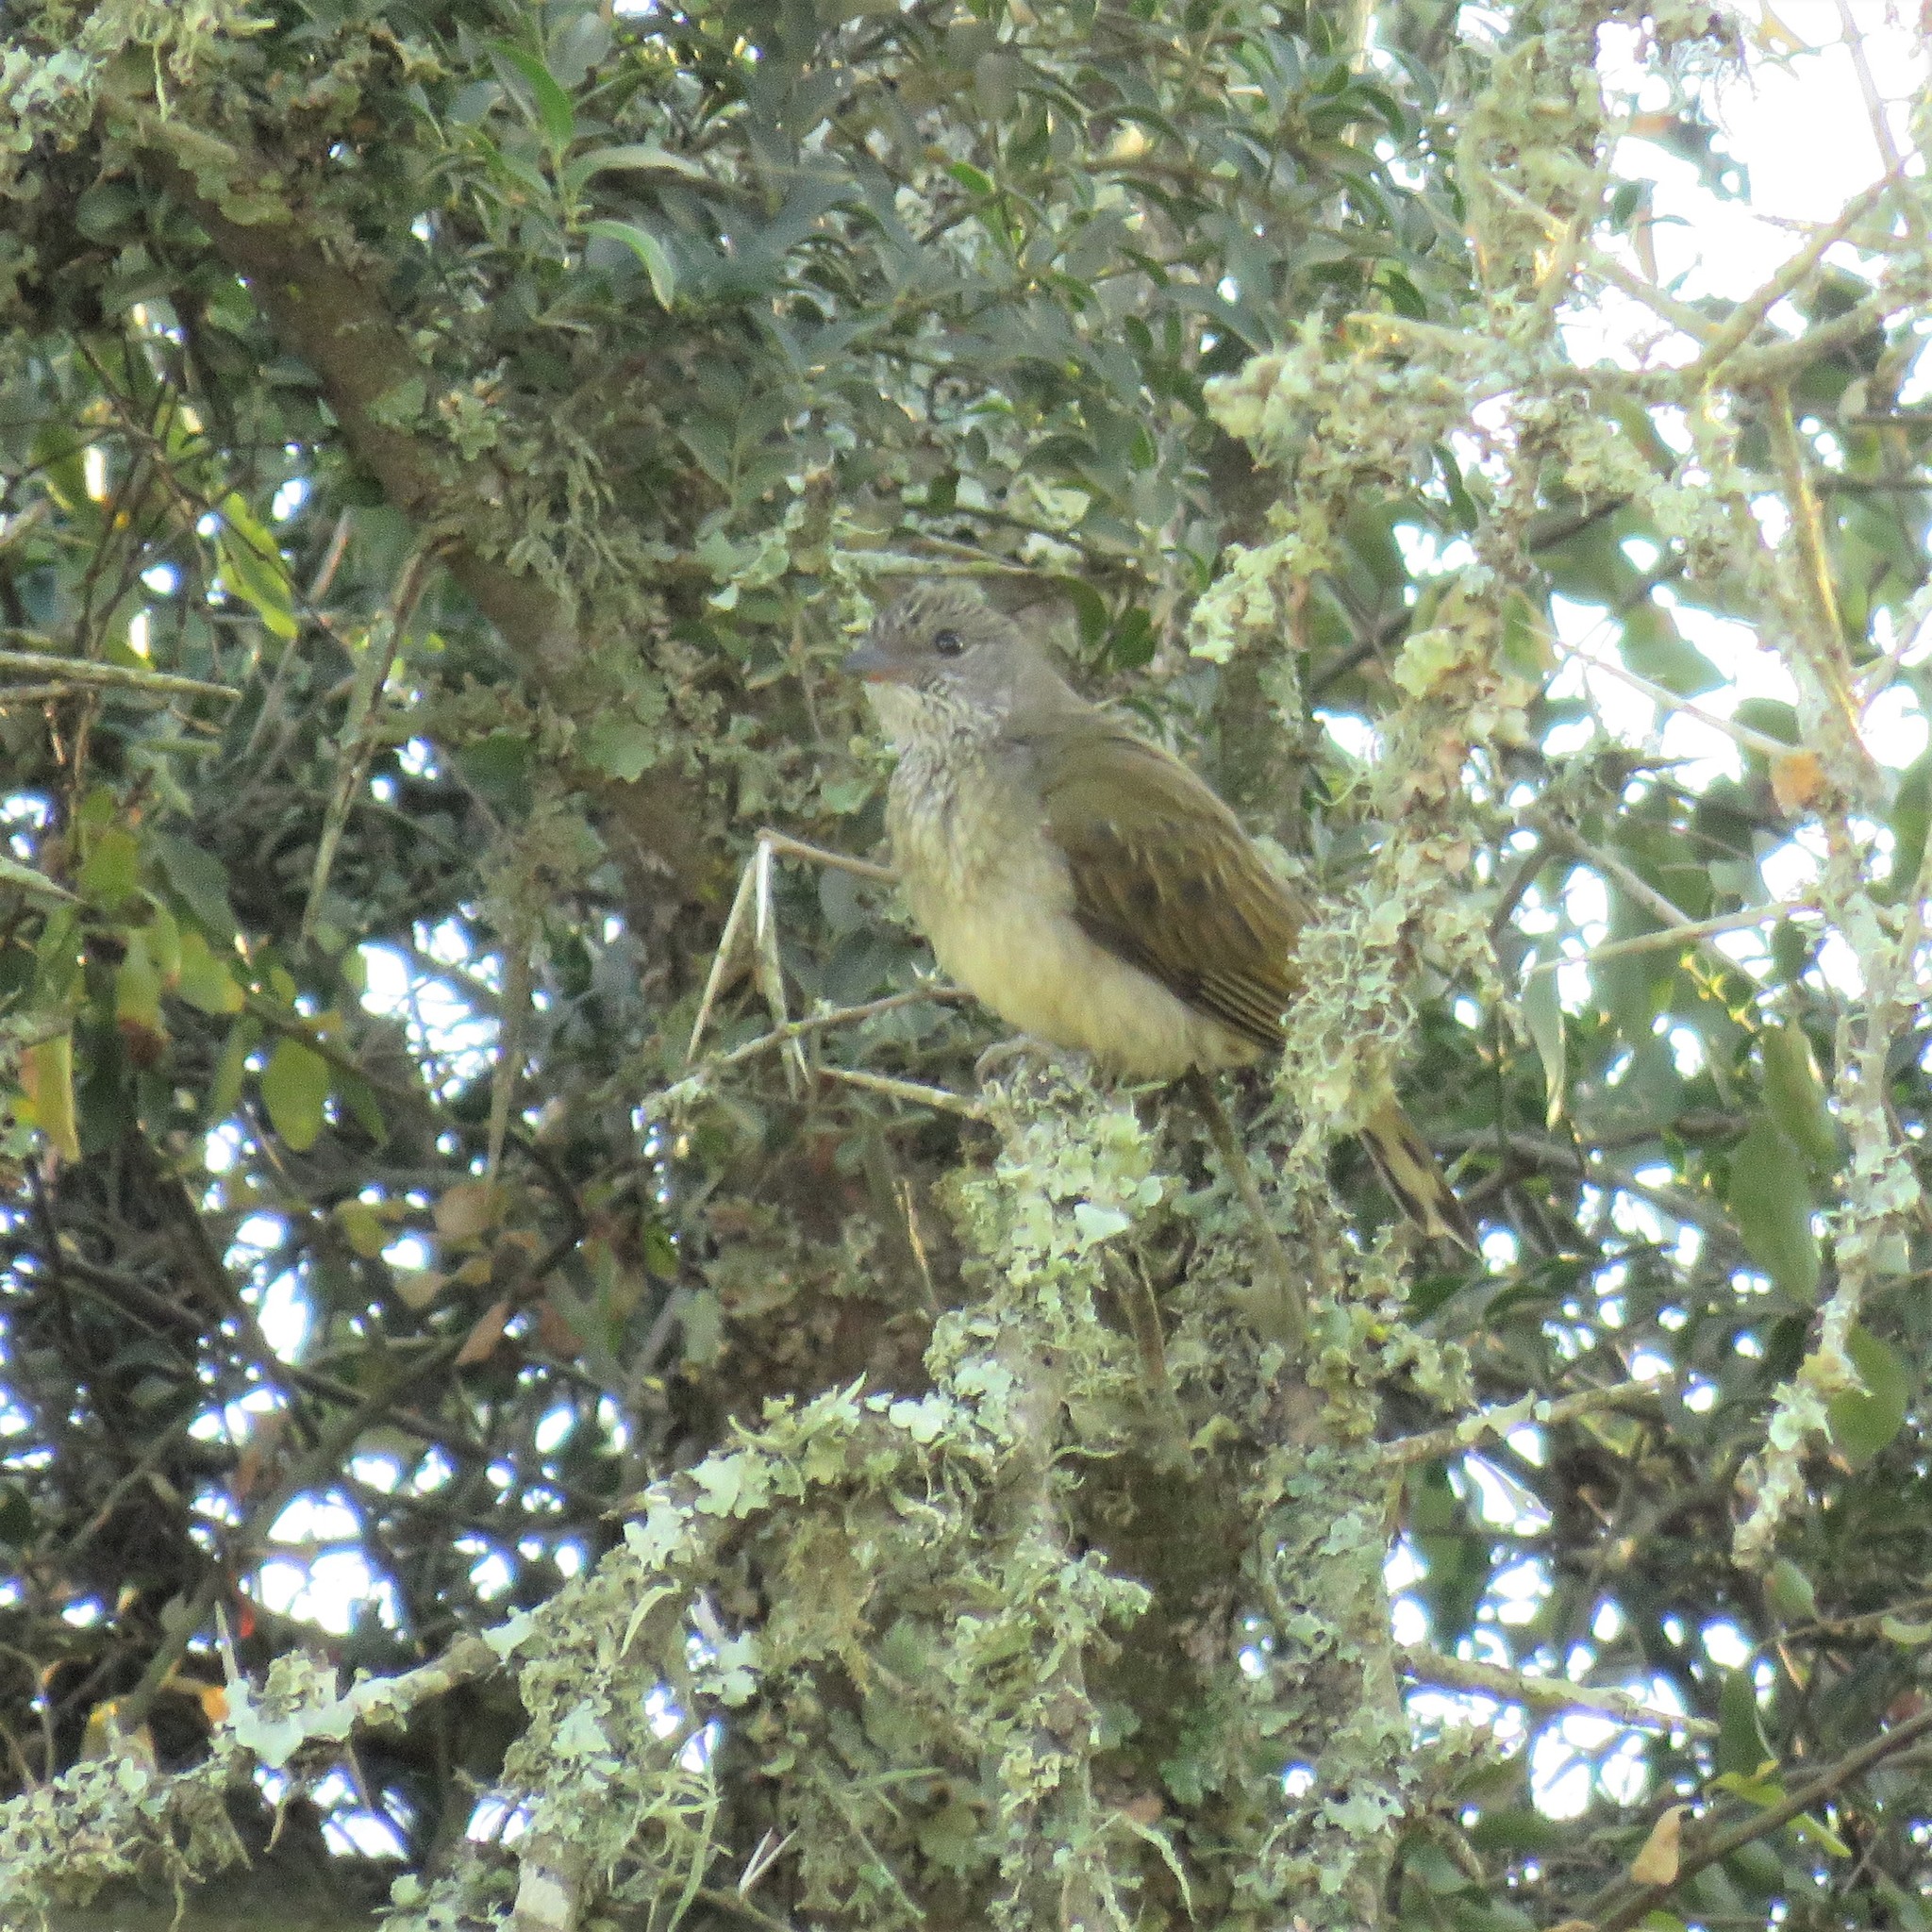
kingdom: Animalia
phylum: Chordata
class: Aves
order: Piciformes
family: Indicatoridae
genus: Indicator
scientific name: Indicator variegatus
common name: Scaly-throated honeyguide
